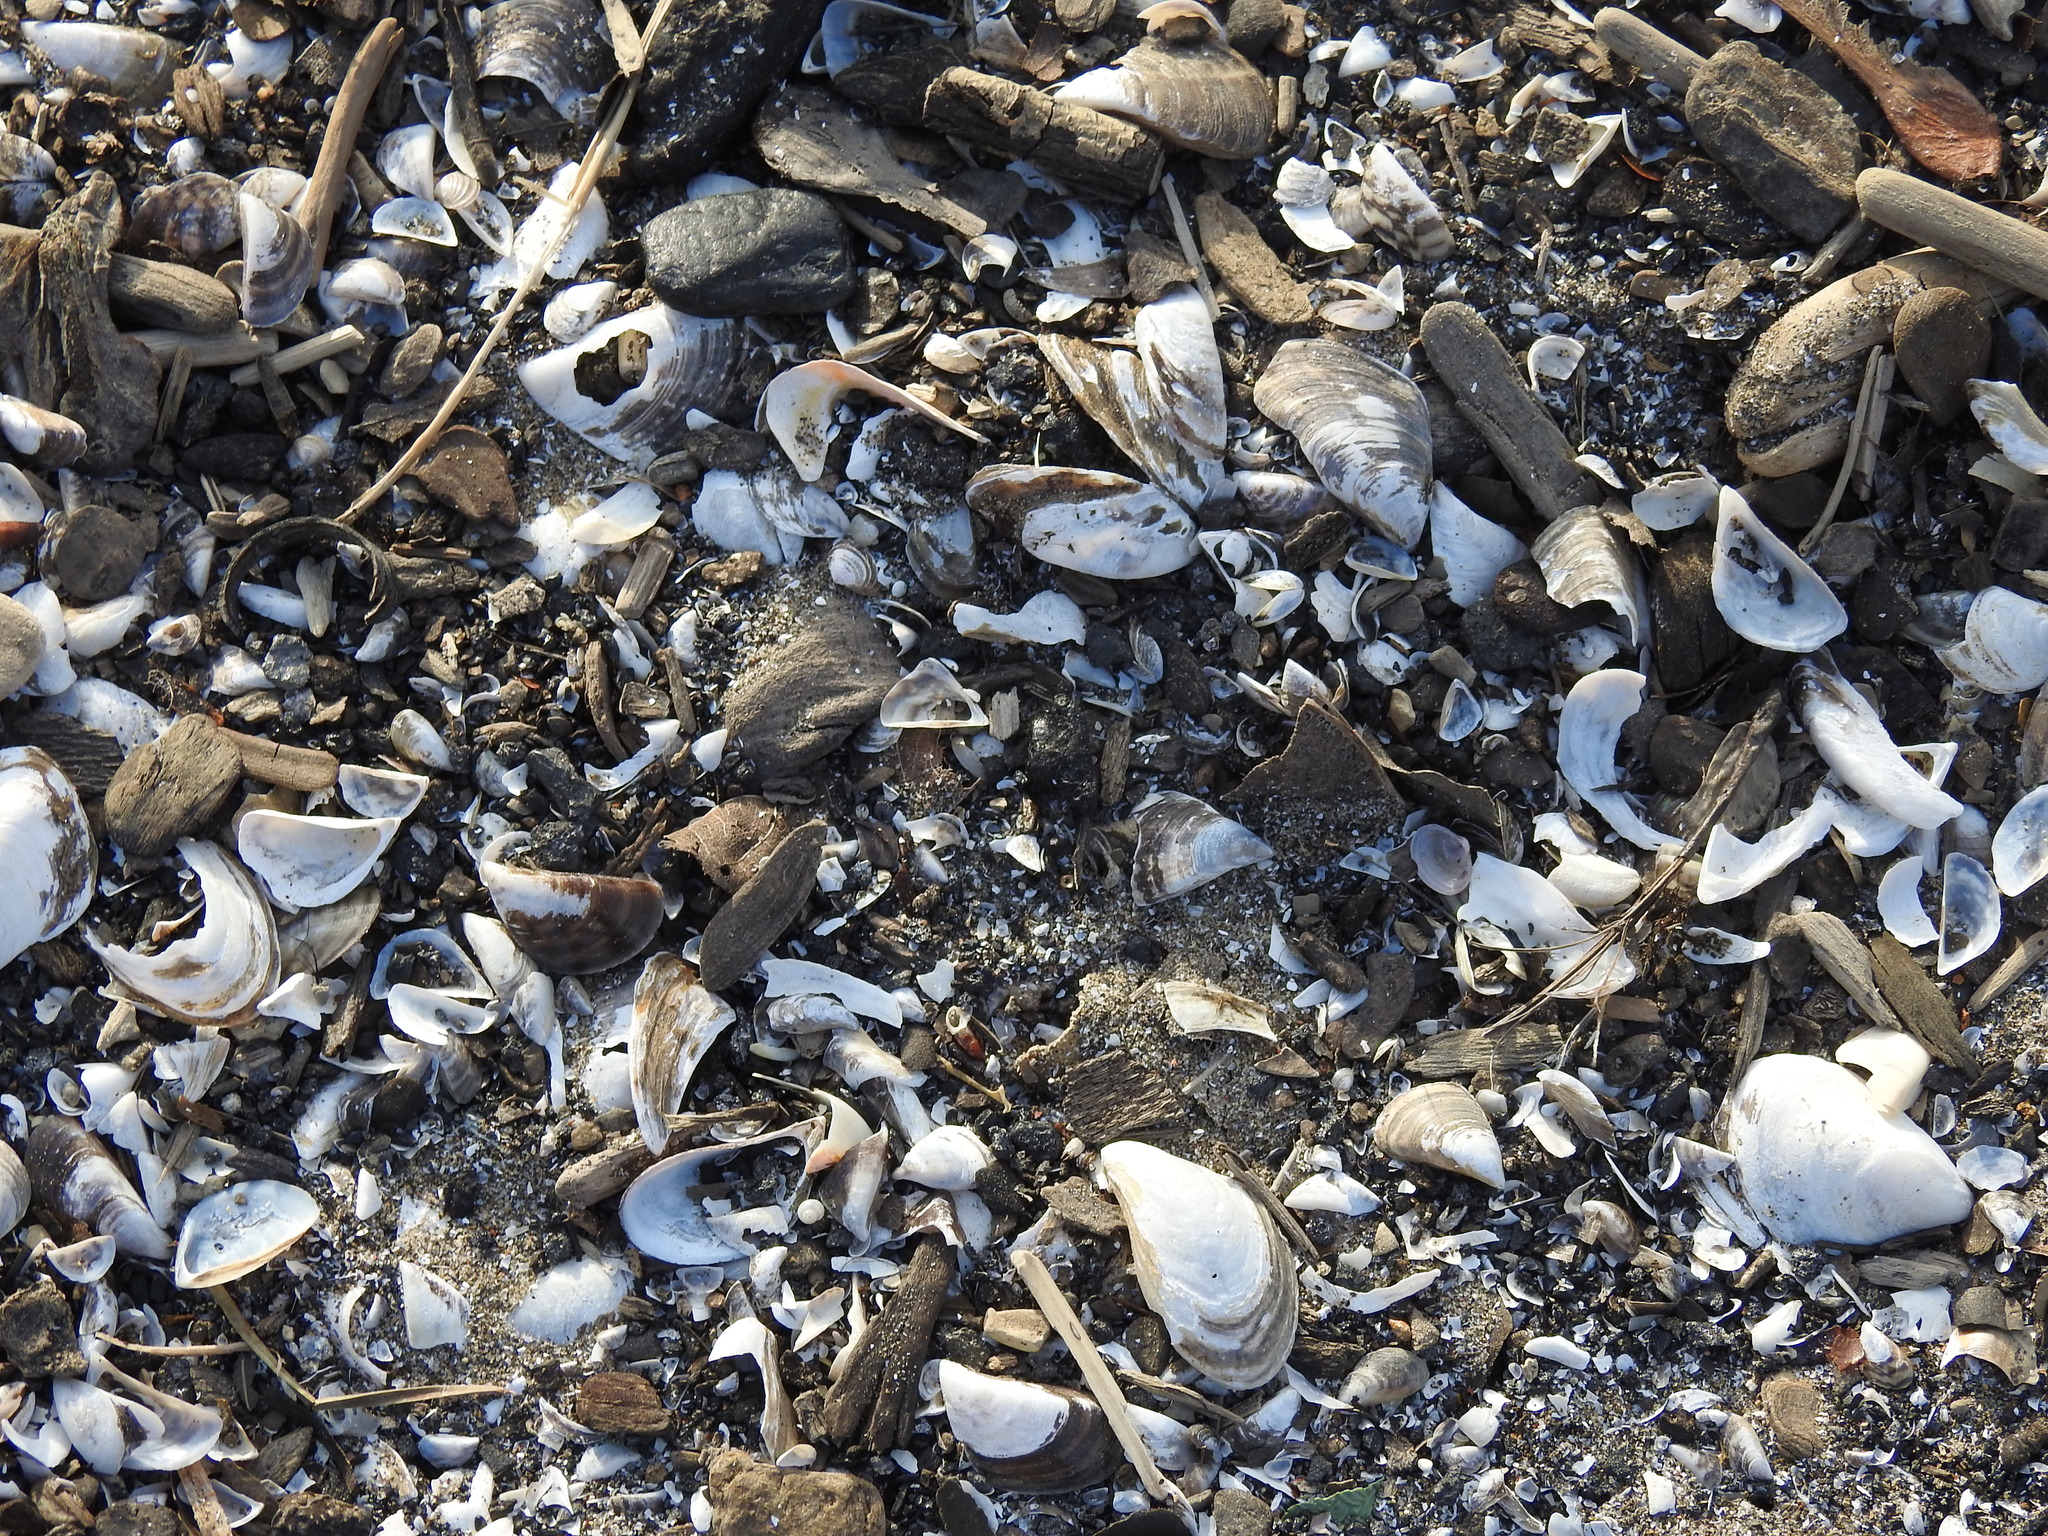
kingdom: Animalia
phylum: Mollusca
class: Bivalvia
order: Myida
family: Dreissenidae
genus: Dreissena
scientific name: Dreissena bugensis
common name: Quagga mussel
